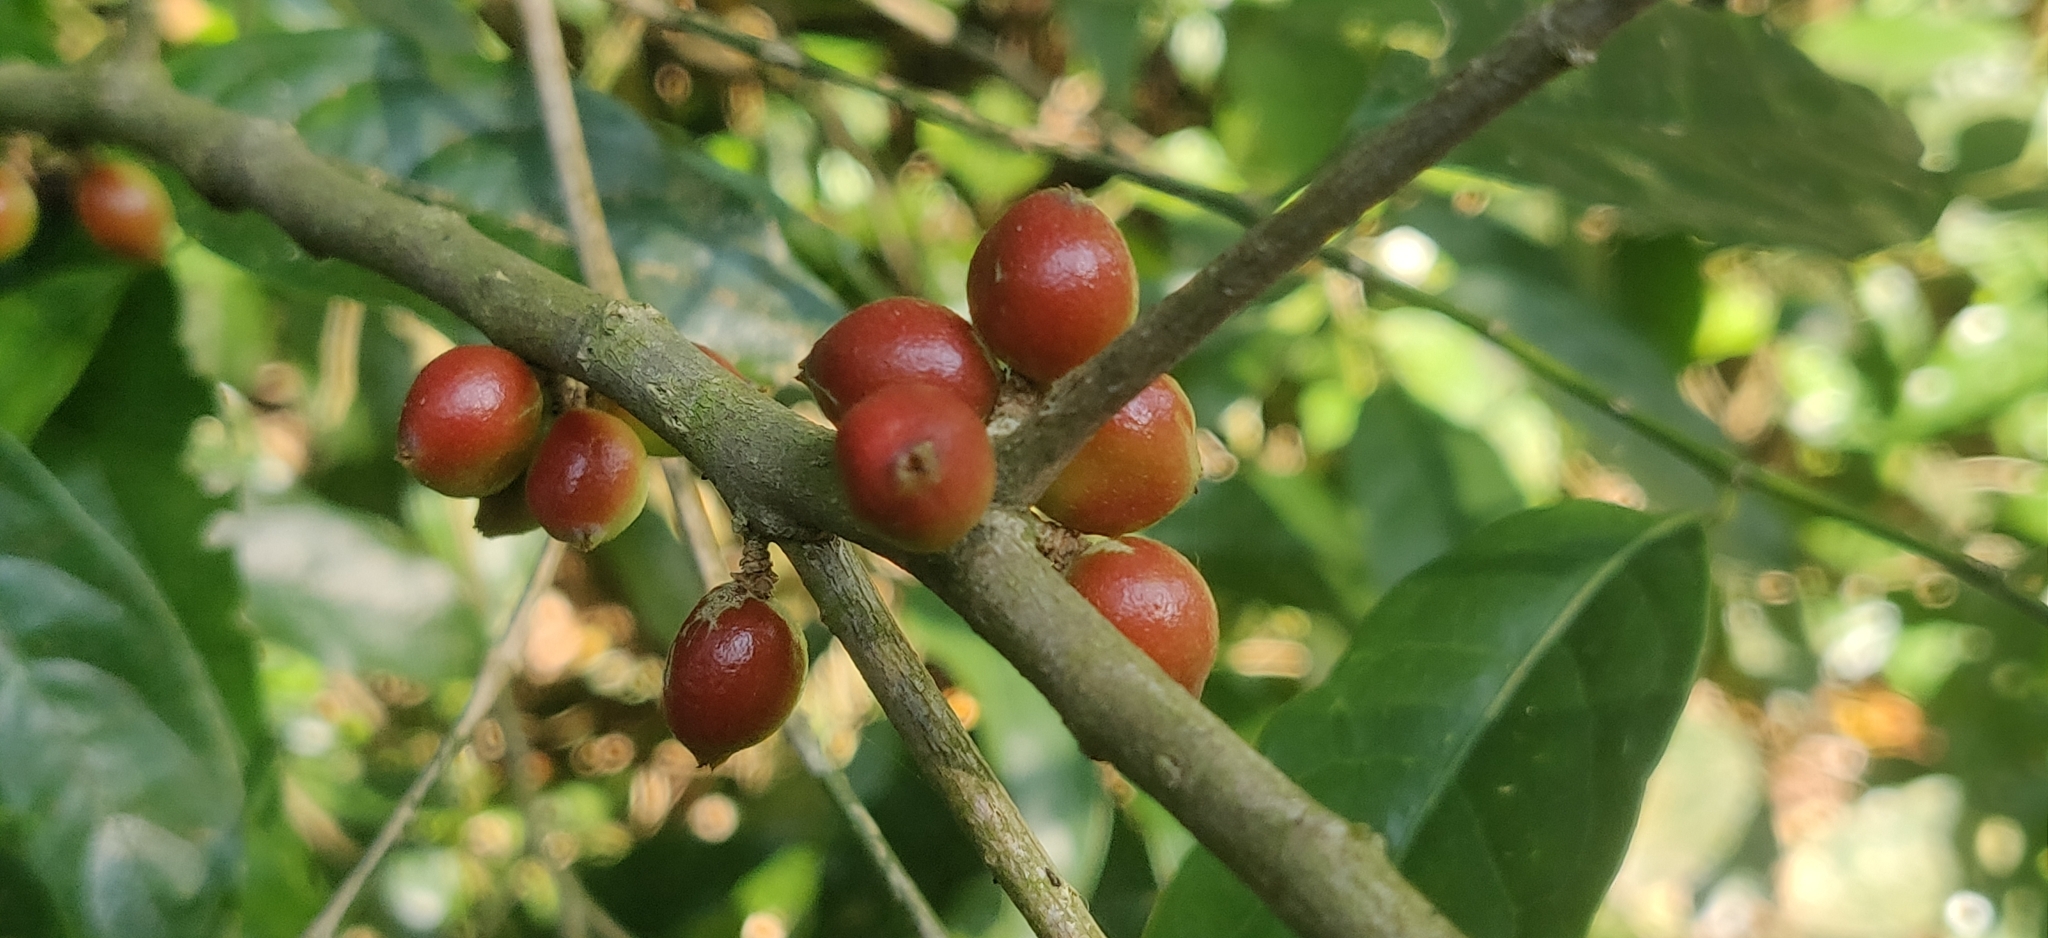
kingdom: Plantae
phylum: Tracheophyta
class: Magnoliopsida
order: Malpighiales
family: Phyllanthaceae
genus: Aporosa
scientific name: Aporosa indoacuminata
